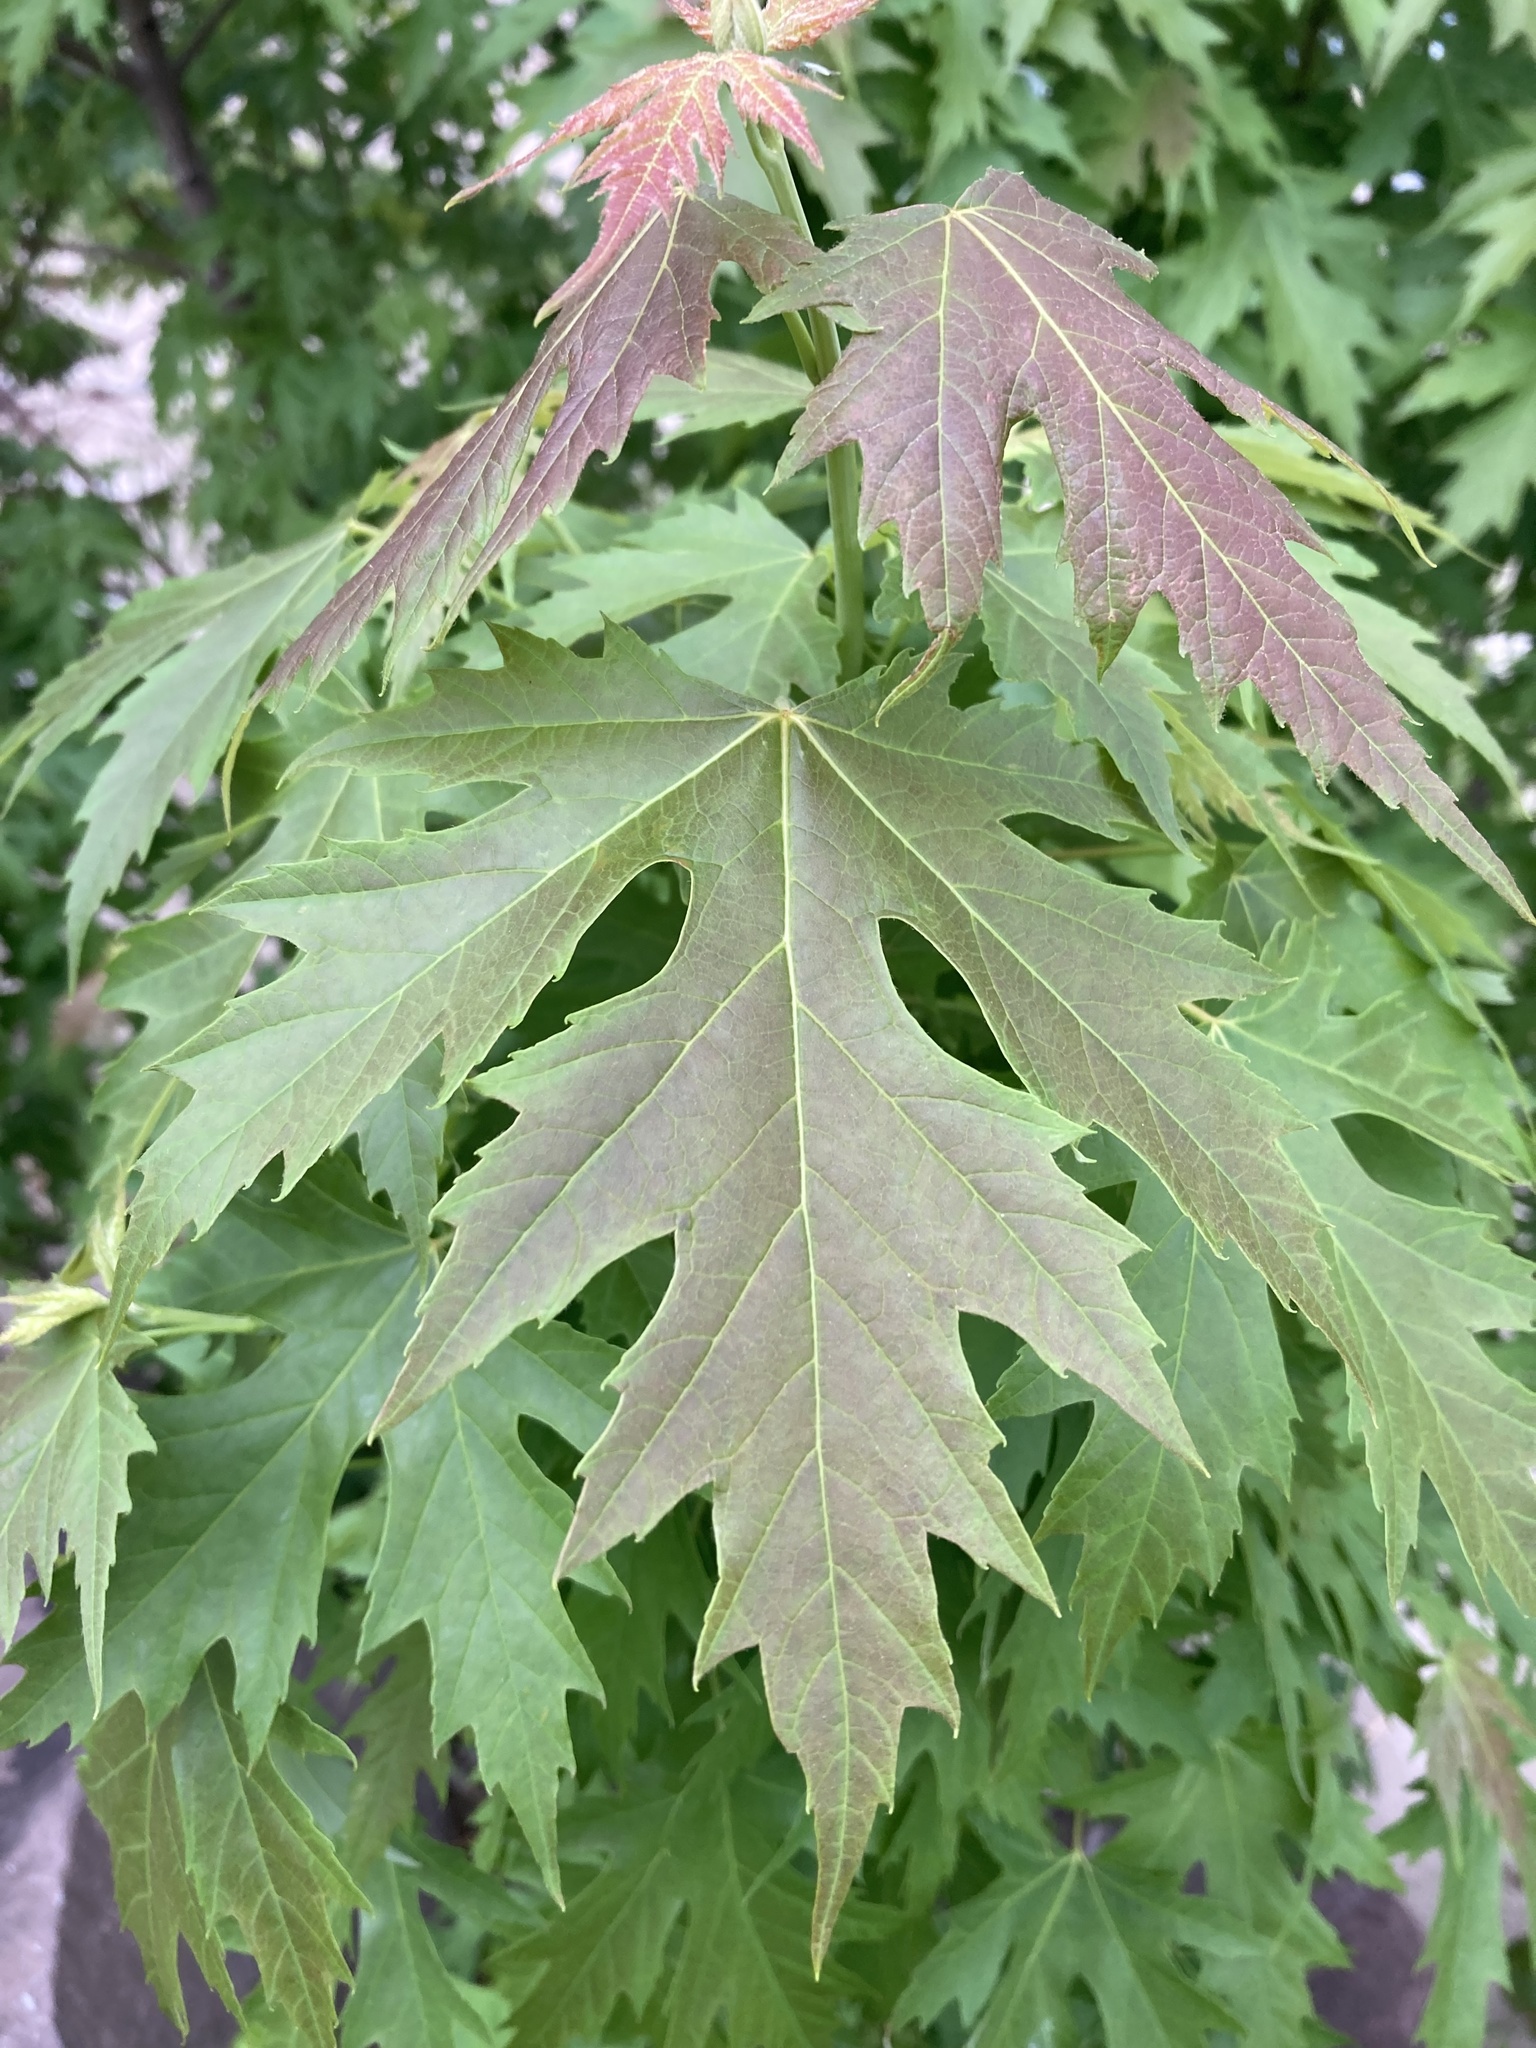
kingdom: Plantae
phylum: Tracheophyta
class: Magnoliopsida
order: Sapindales
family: Sapindaceae
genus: Acer
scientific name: Acer saccharinum
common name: Silver maple
